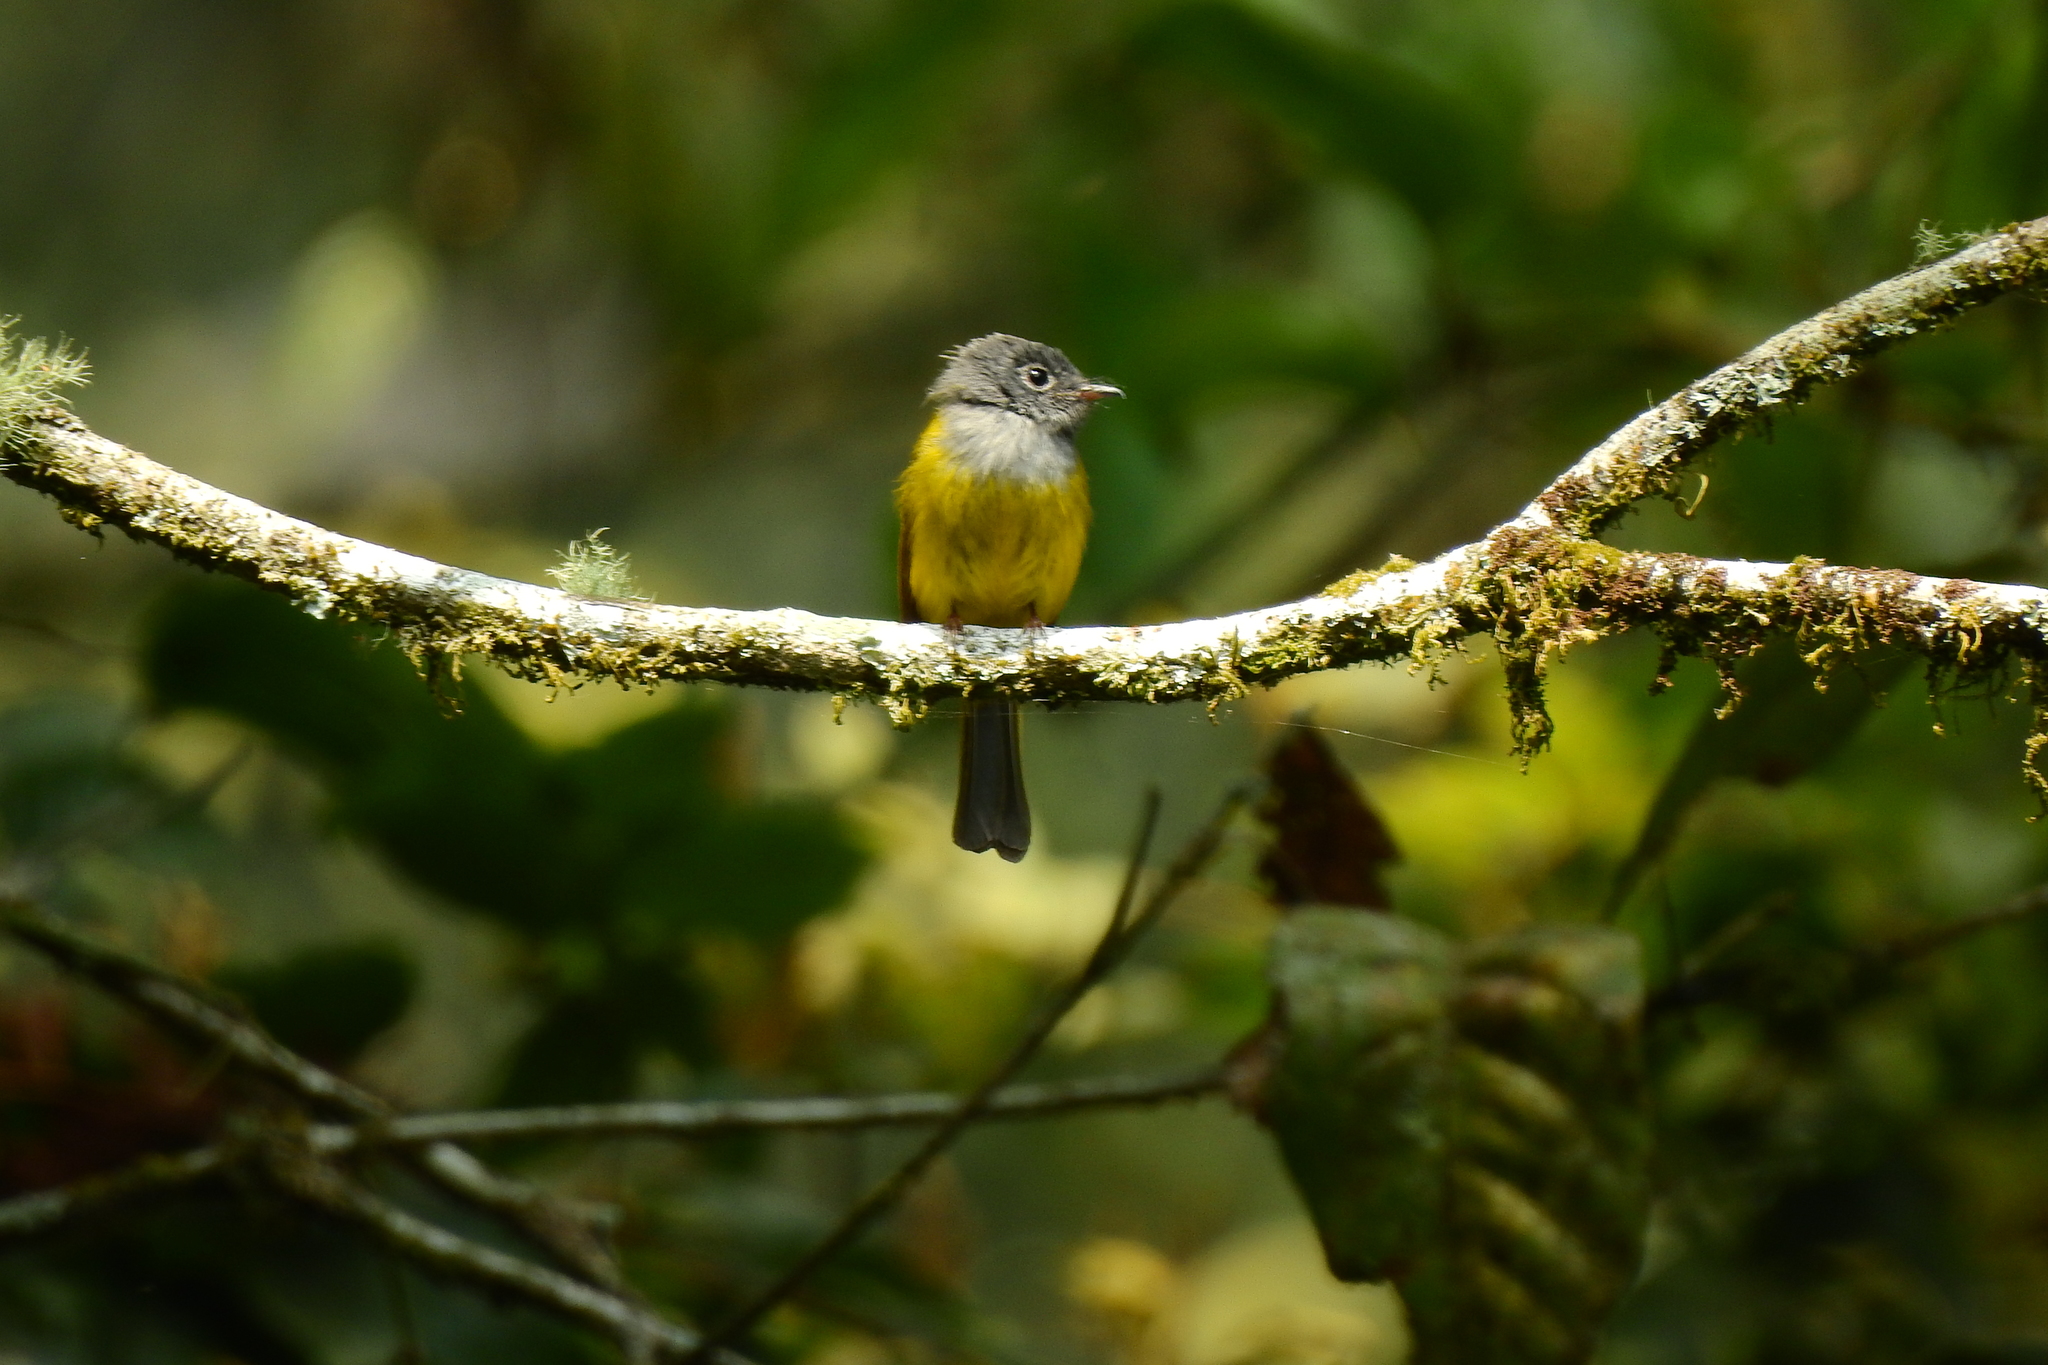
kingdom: Animalia
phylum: Chordata
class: Aves
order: Passeriformes
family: Stenostiridae
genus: Culicicapa
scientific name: Culicicapa ceylonensis
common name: Grey-headed canary-flycatcher
